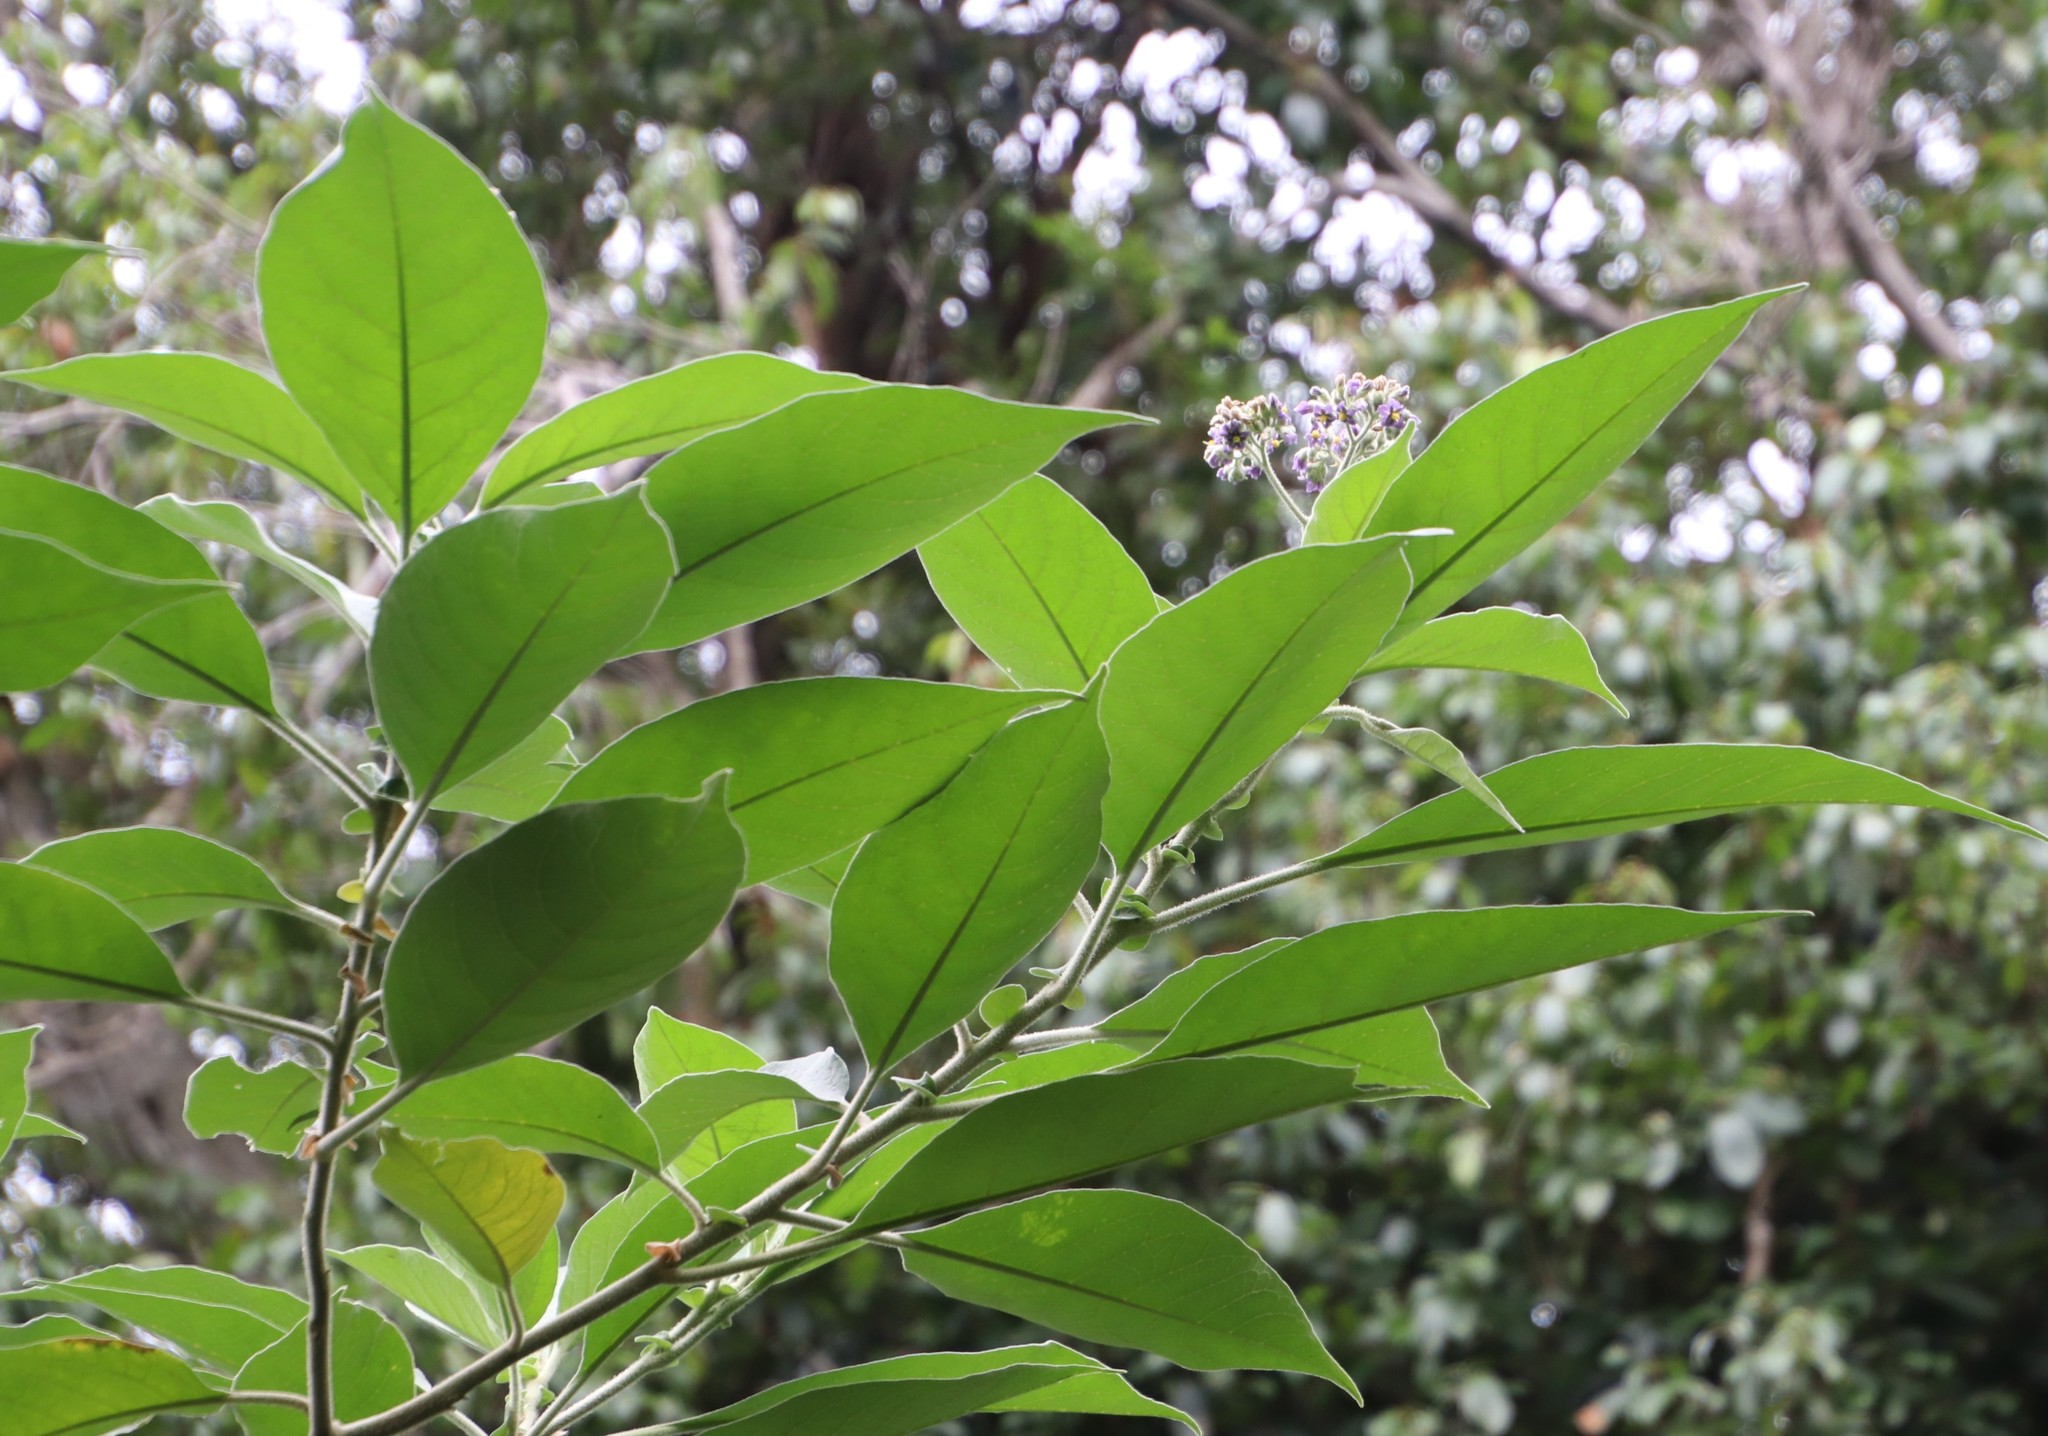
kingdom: Plantae
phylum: Tracheophyta
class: Magnoliopsida
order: Solanales
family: Solanaceae
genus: Solanum
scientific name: Solanum mauritianum
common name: Earleaf nightshade
